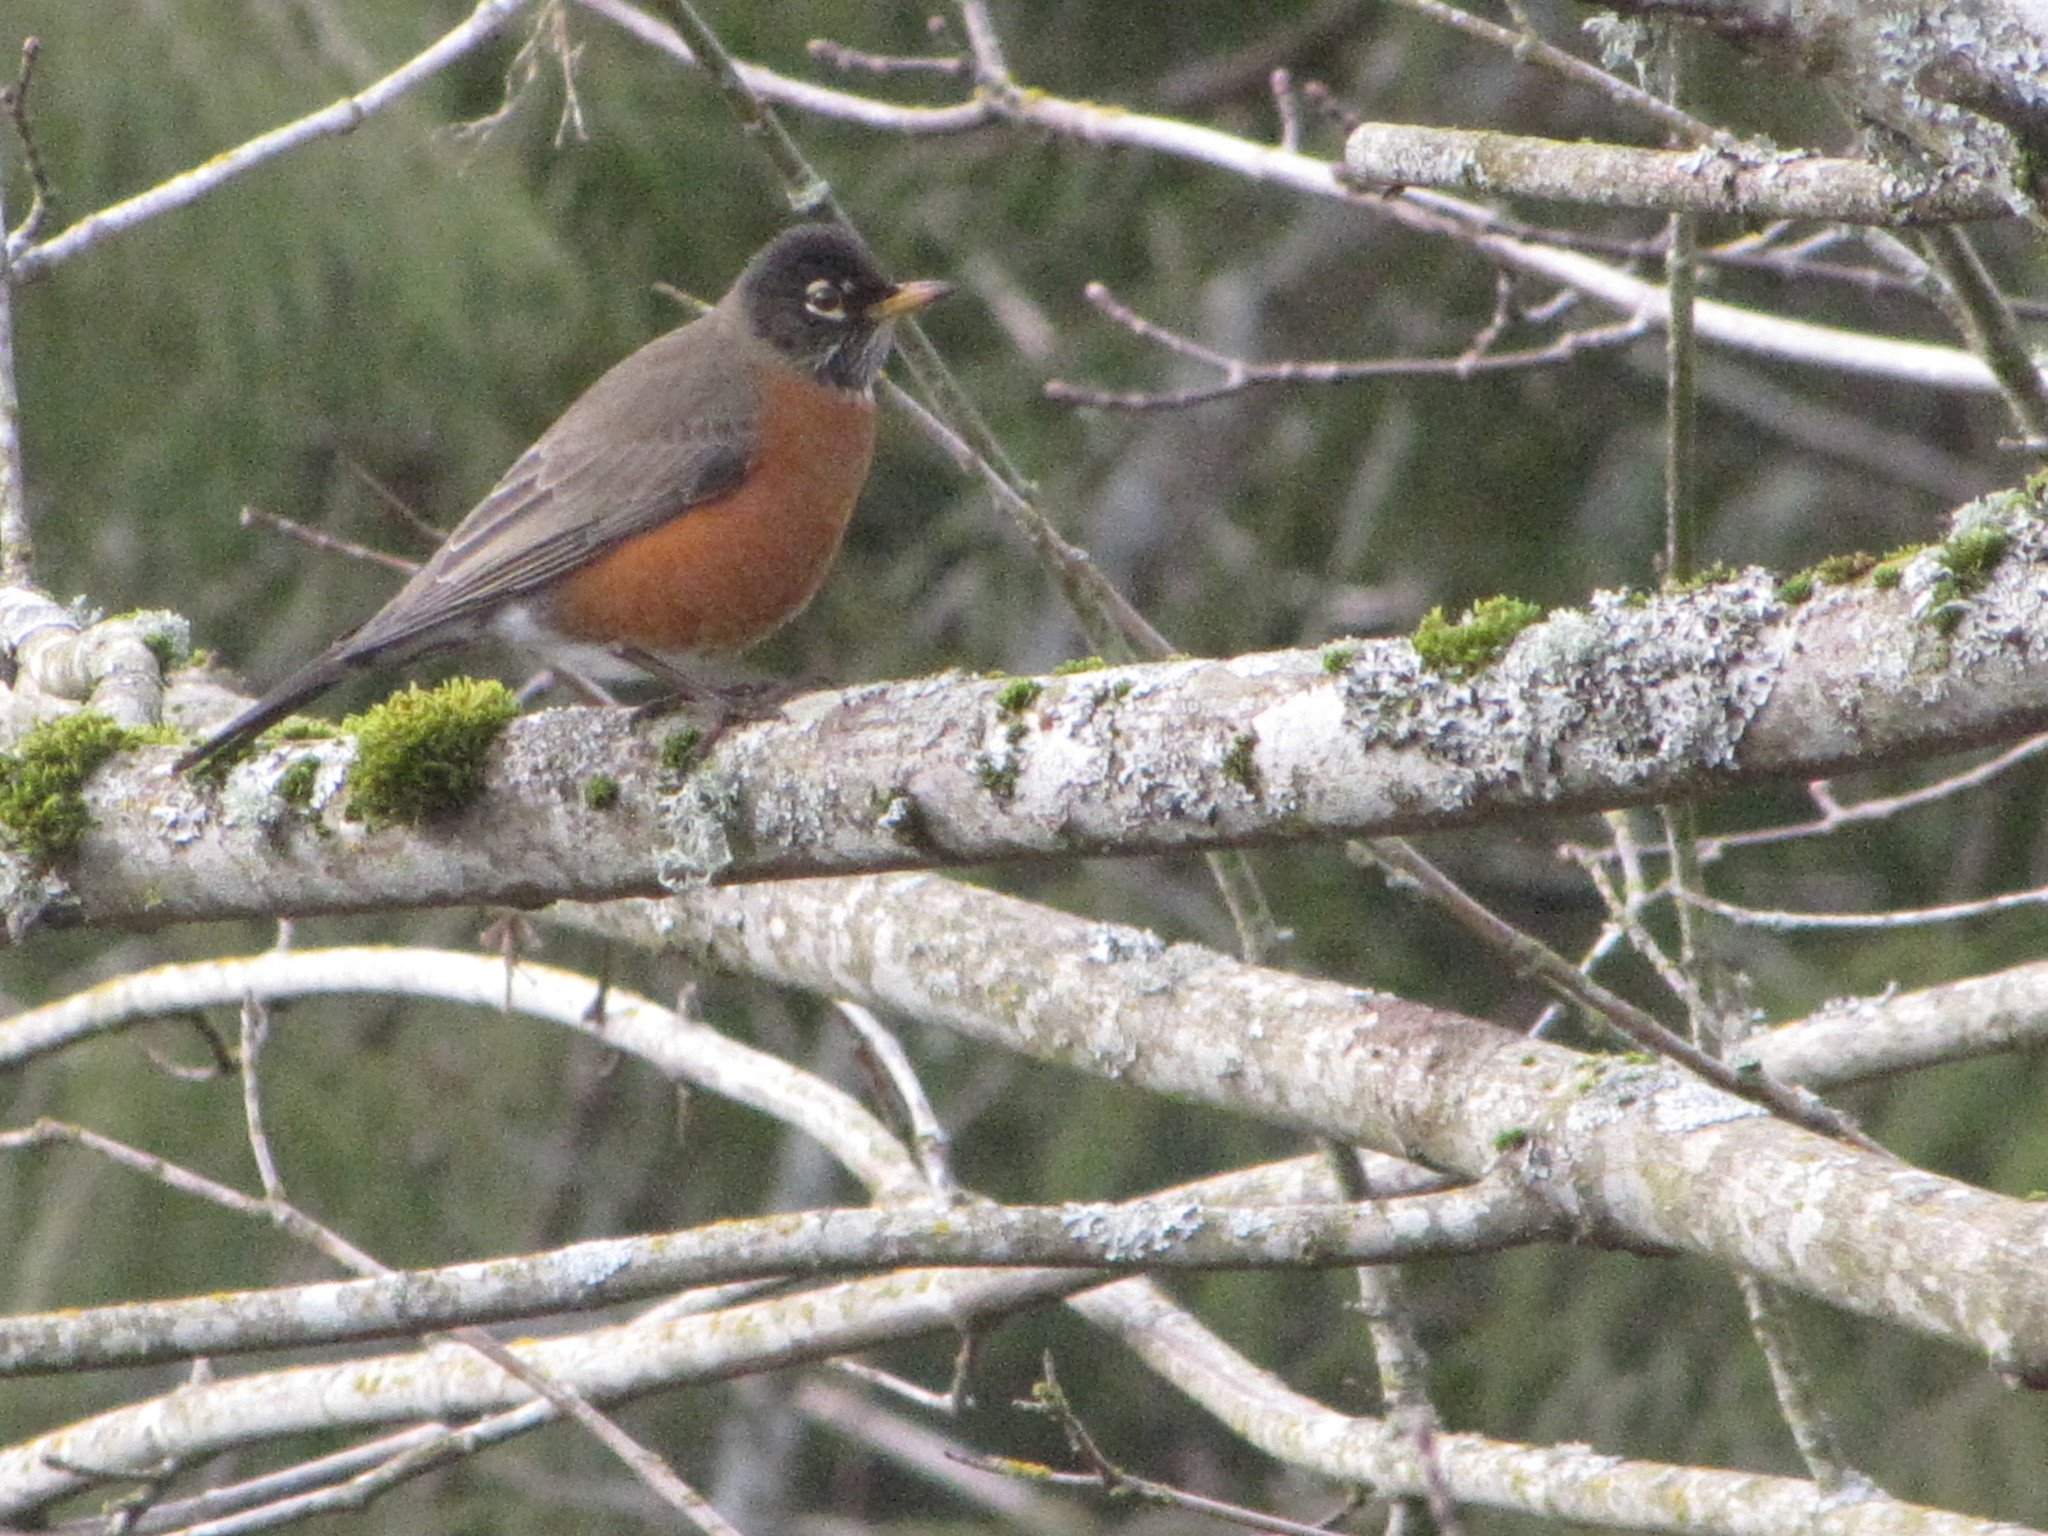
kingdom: Animalia
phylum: Chordata
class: Aves
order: Passeriformes
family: Turdidae
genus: Turdus
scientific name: Turdus migratorius
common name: American robin
